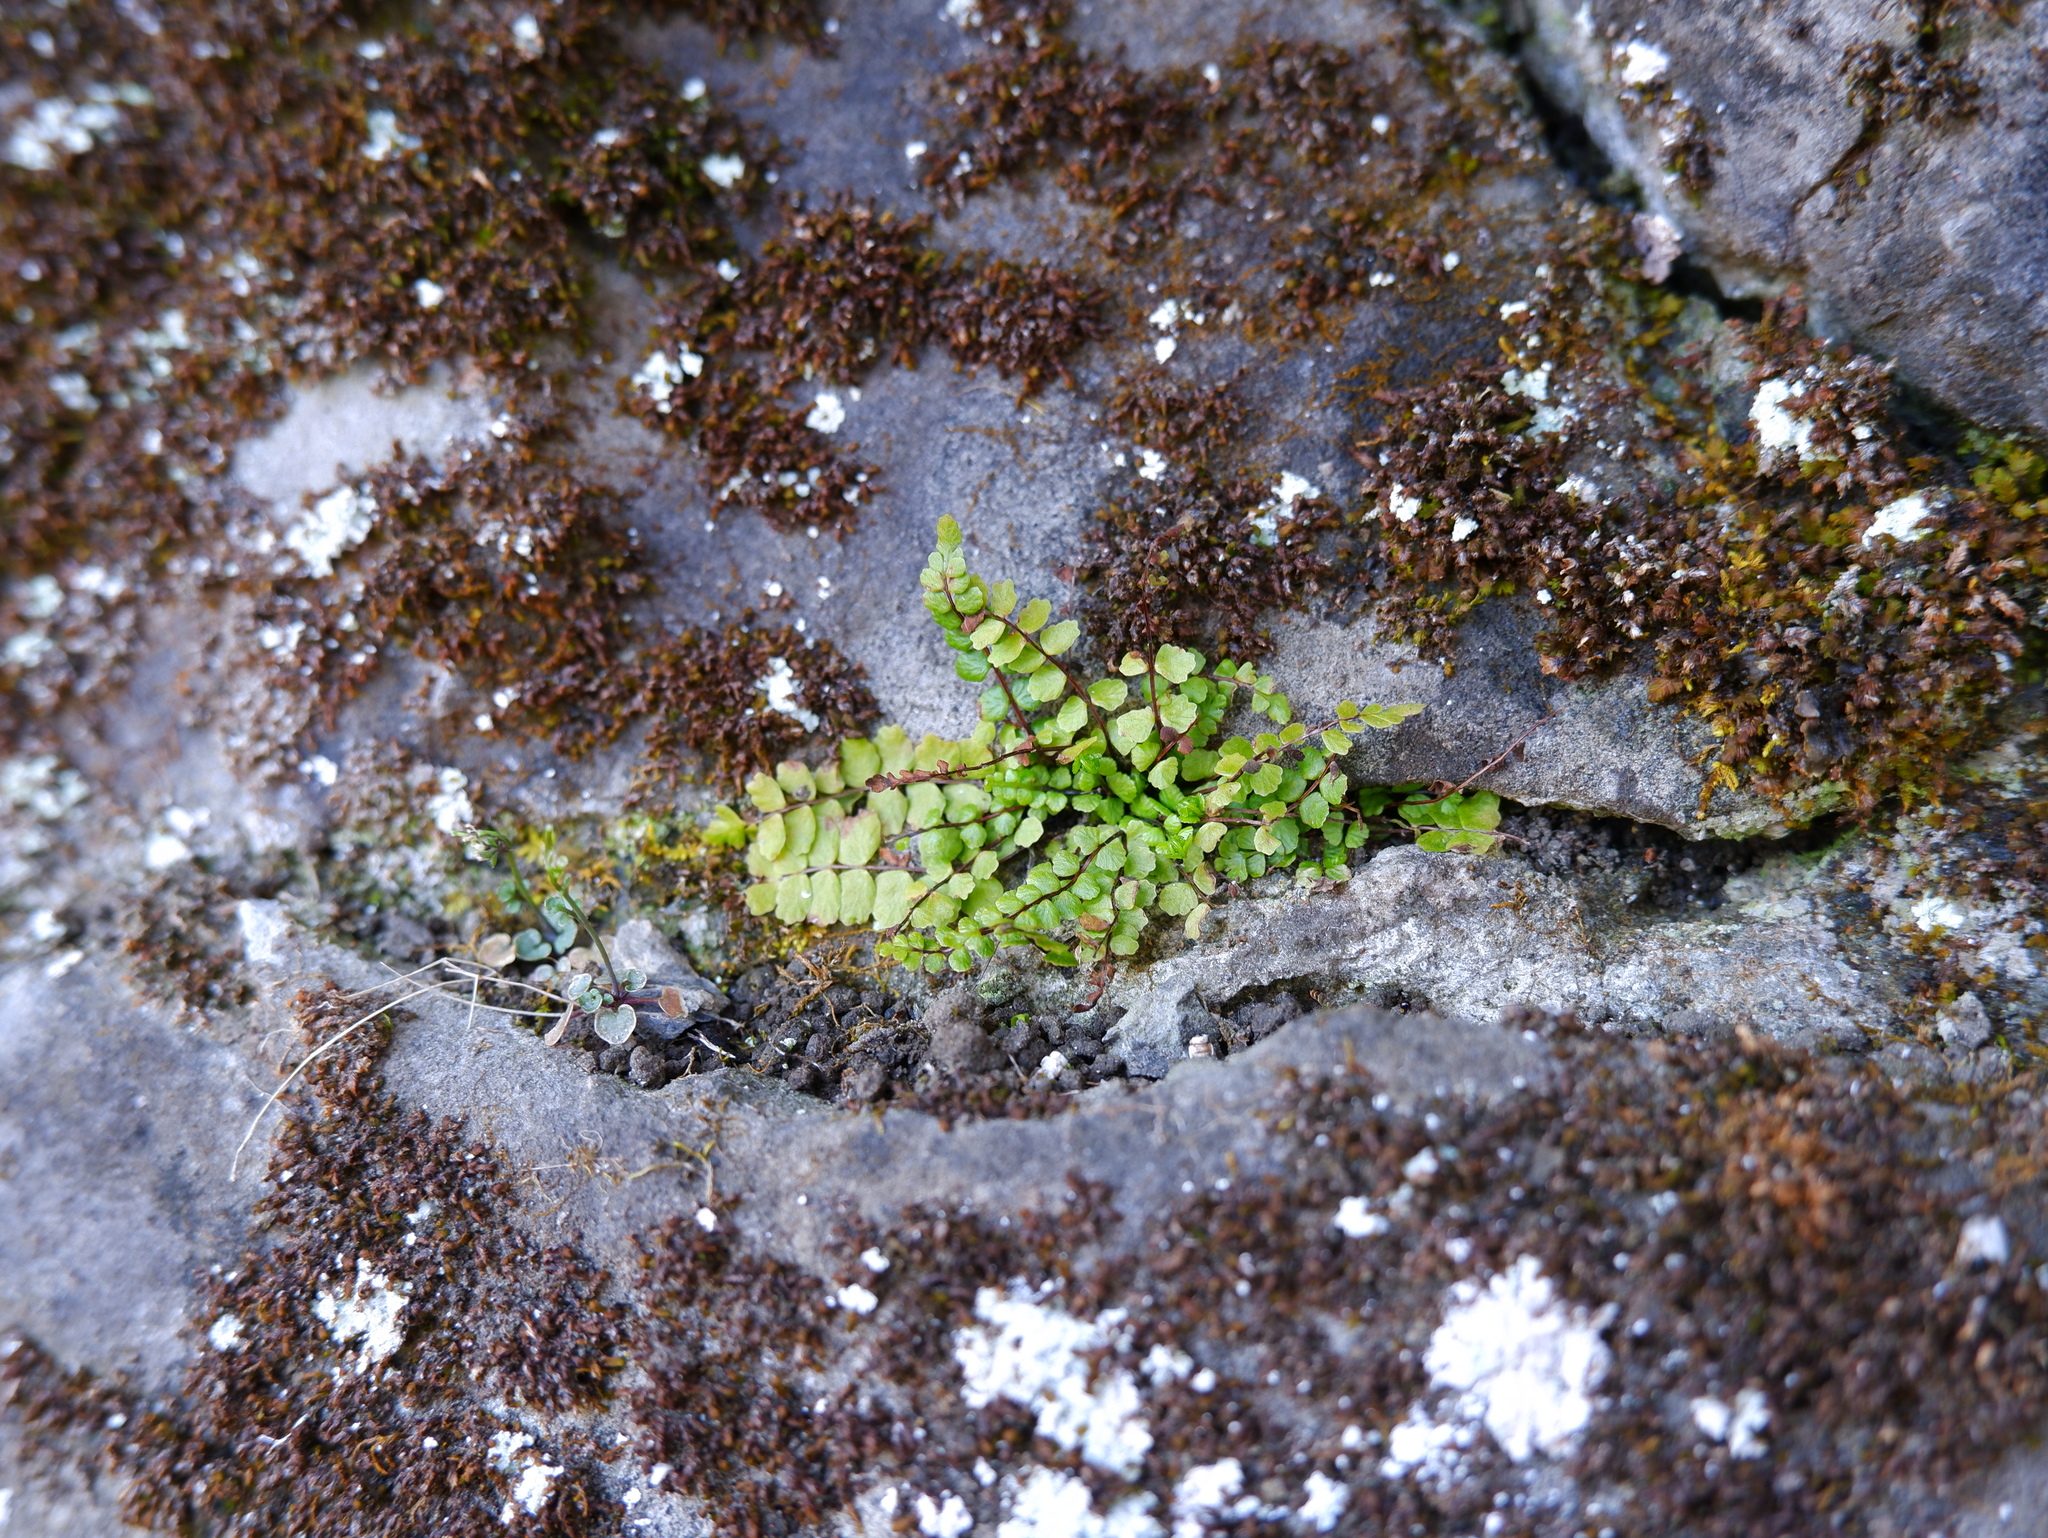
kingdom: Plantae
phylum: Tracheophyta
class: Polypodiopsida
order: Polypodiales
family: Aspleniaceae
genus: Asplenium
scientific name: Asplenium trichomanes
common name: Maidenhair spleenwort
